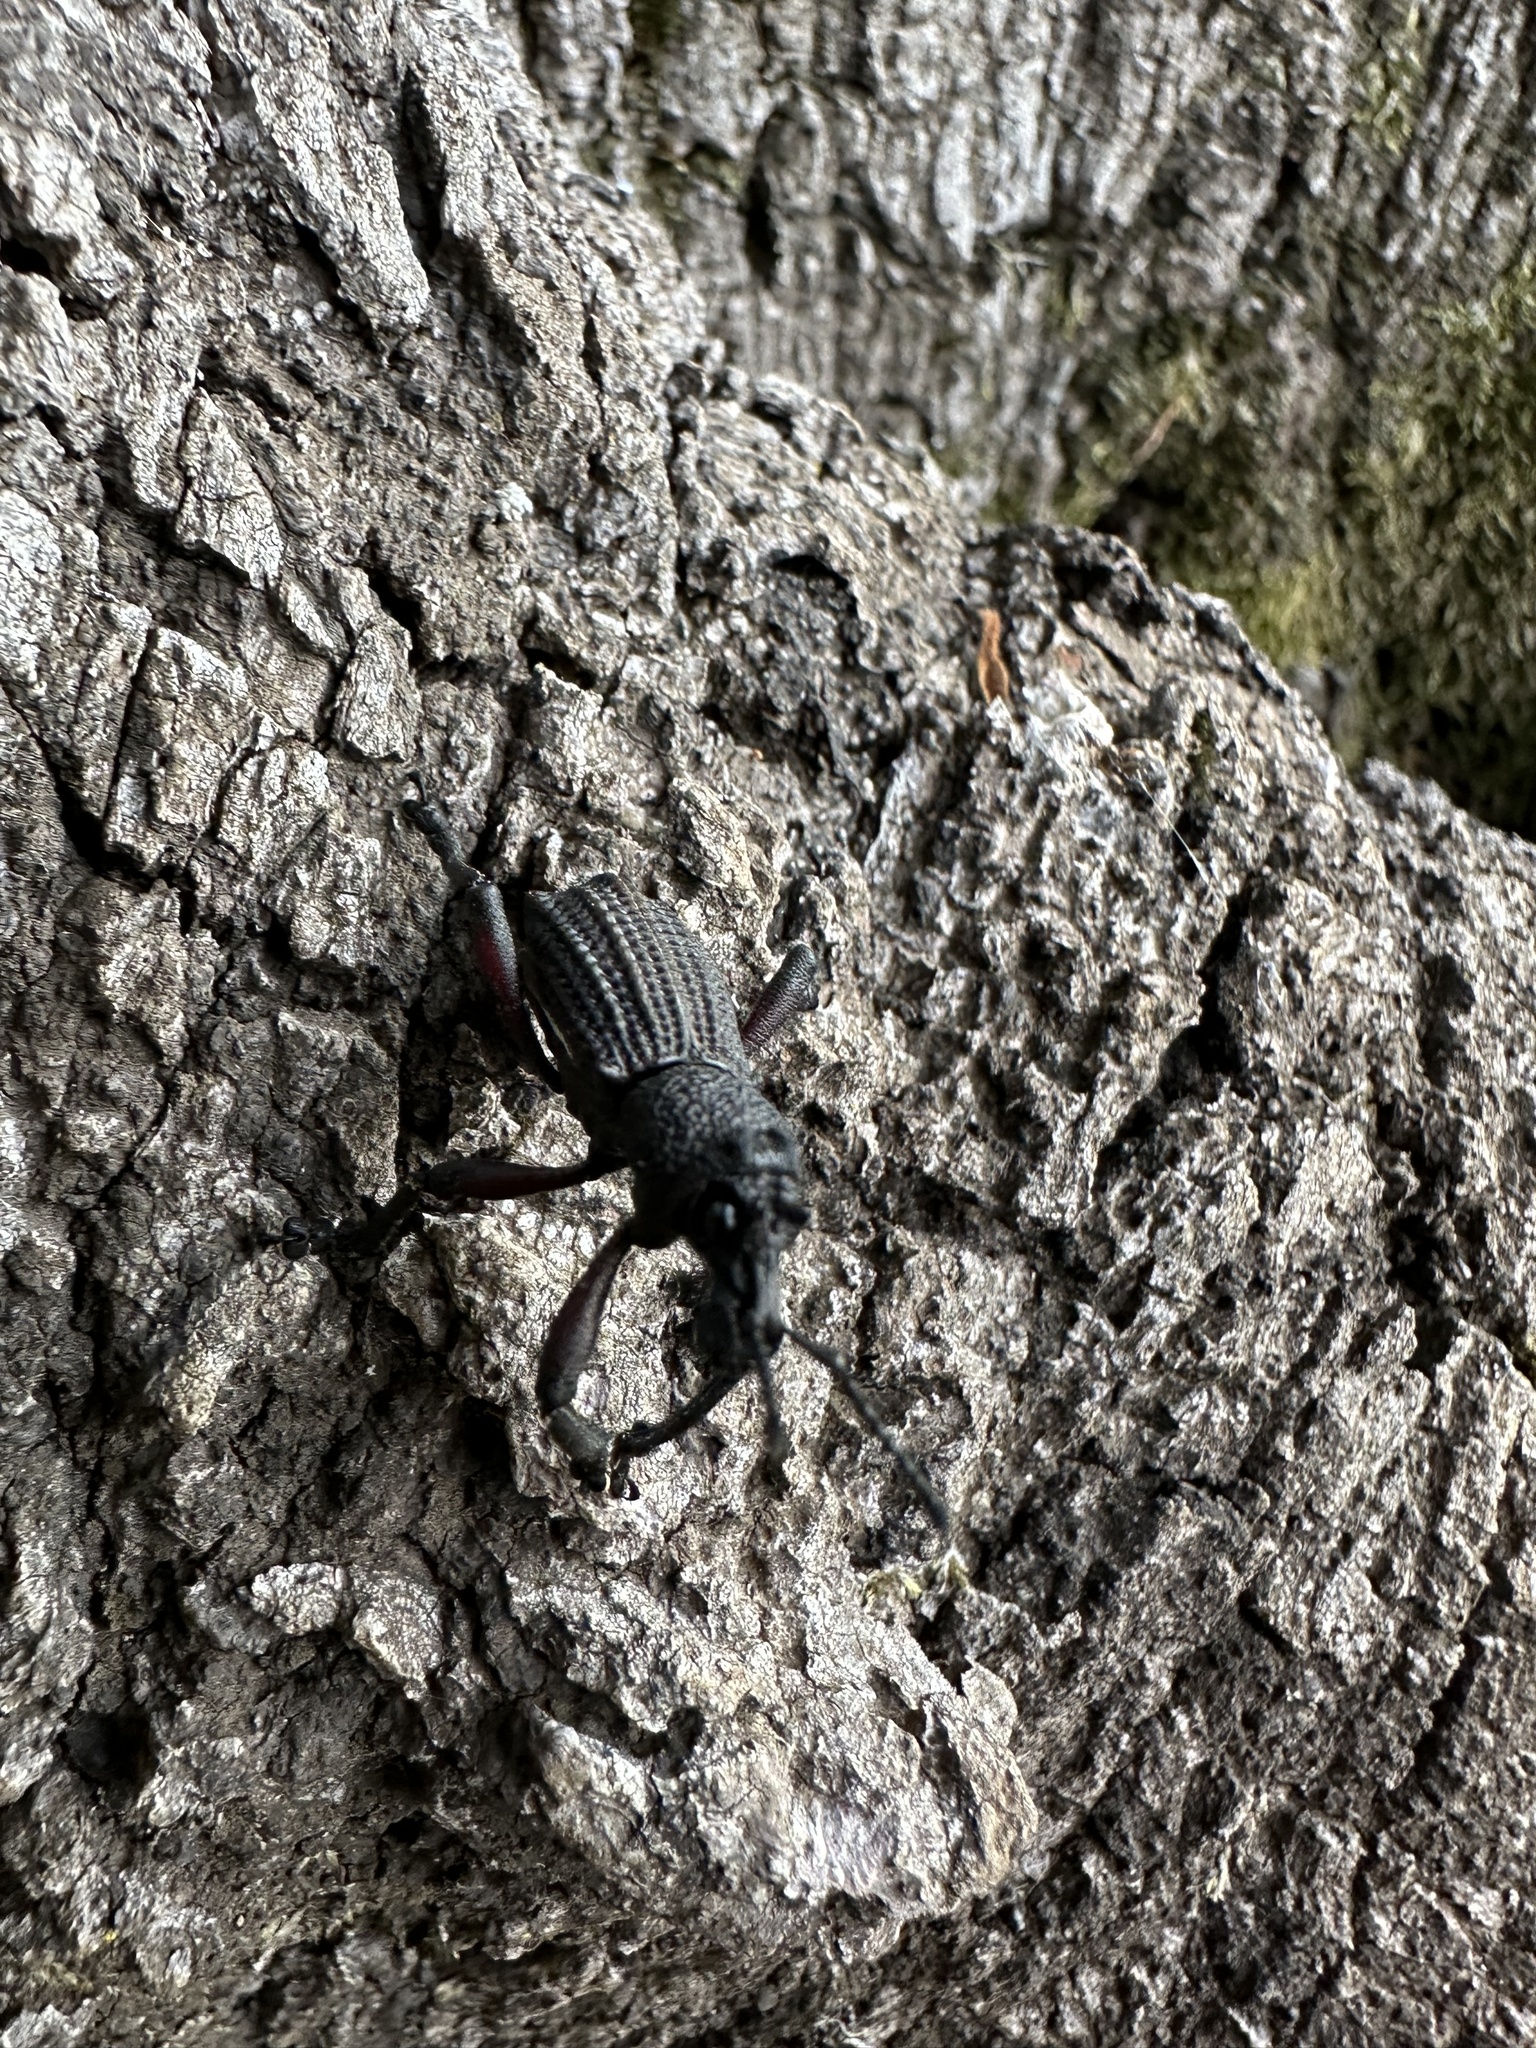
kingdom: Animalia
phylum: Arthropoda
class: Insecta
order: Coleoptera
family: Curculionidae
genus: Aegorhinus
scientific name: Aegorhinus
